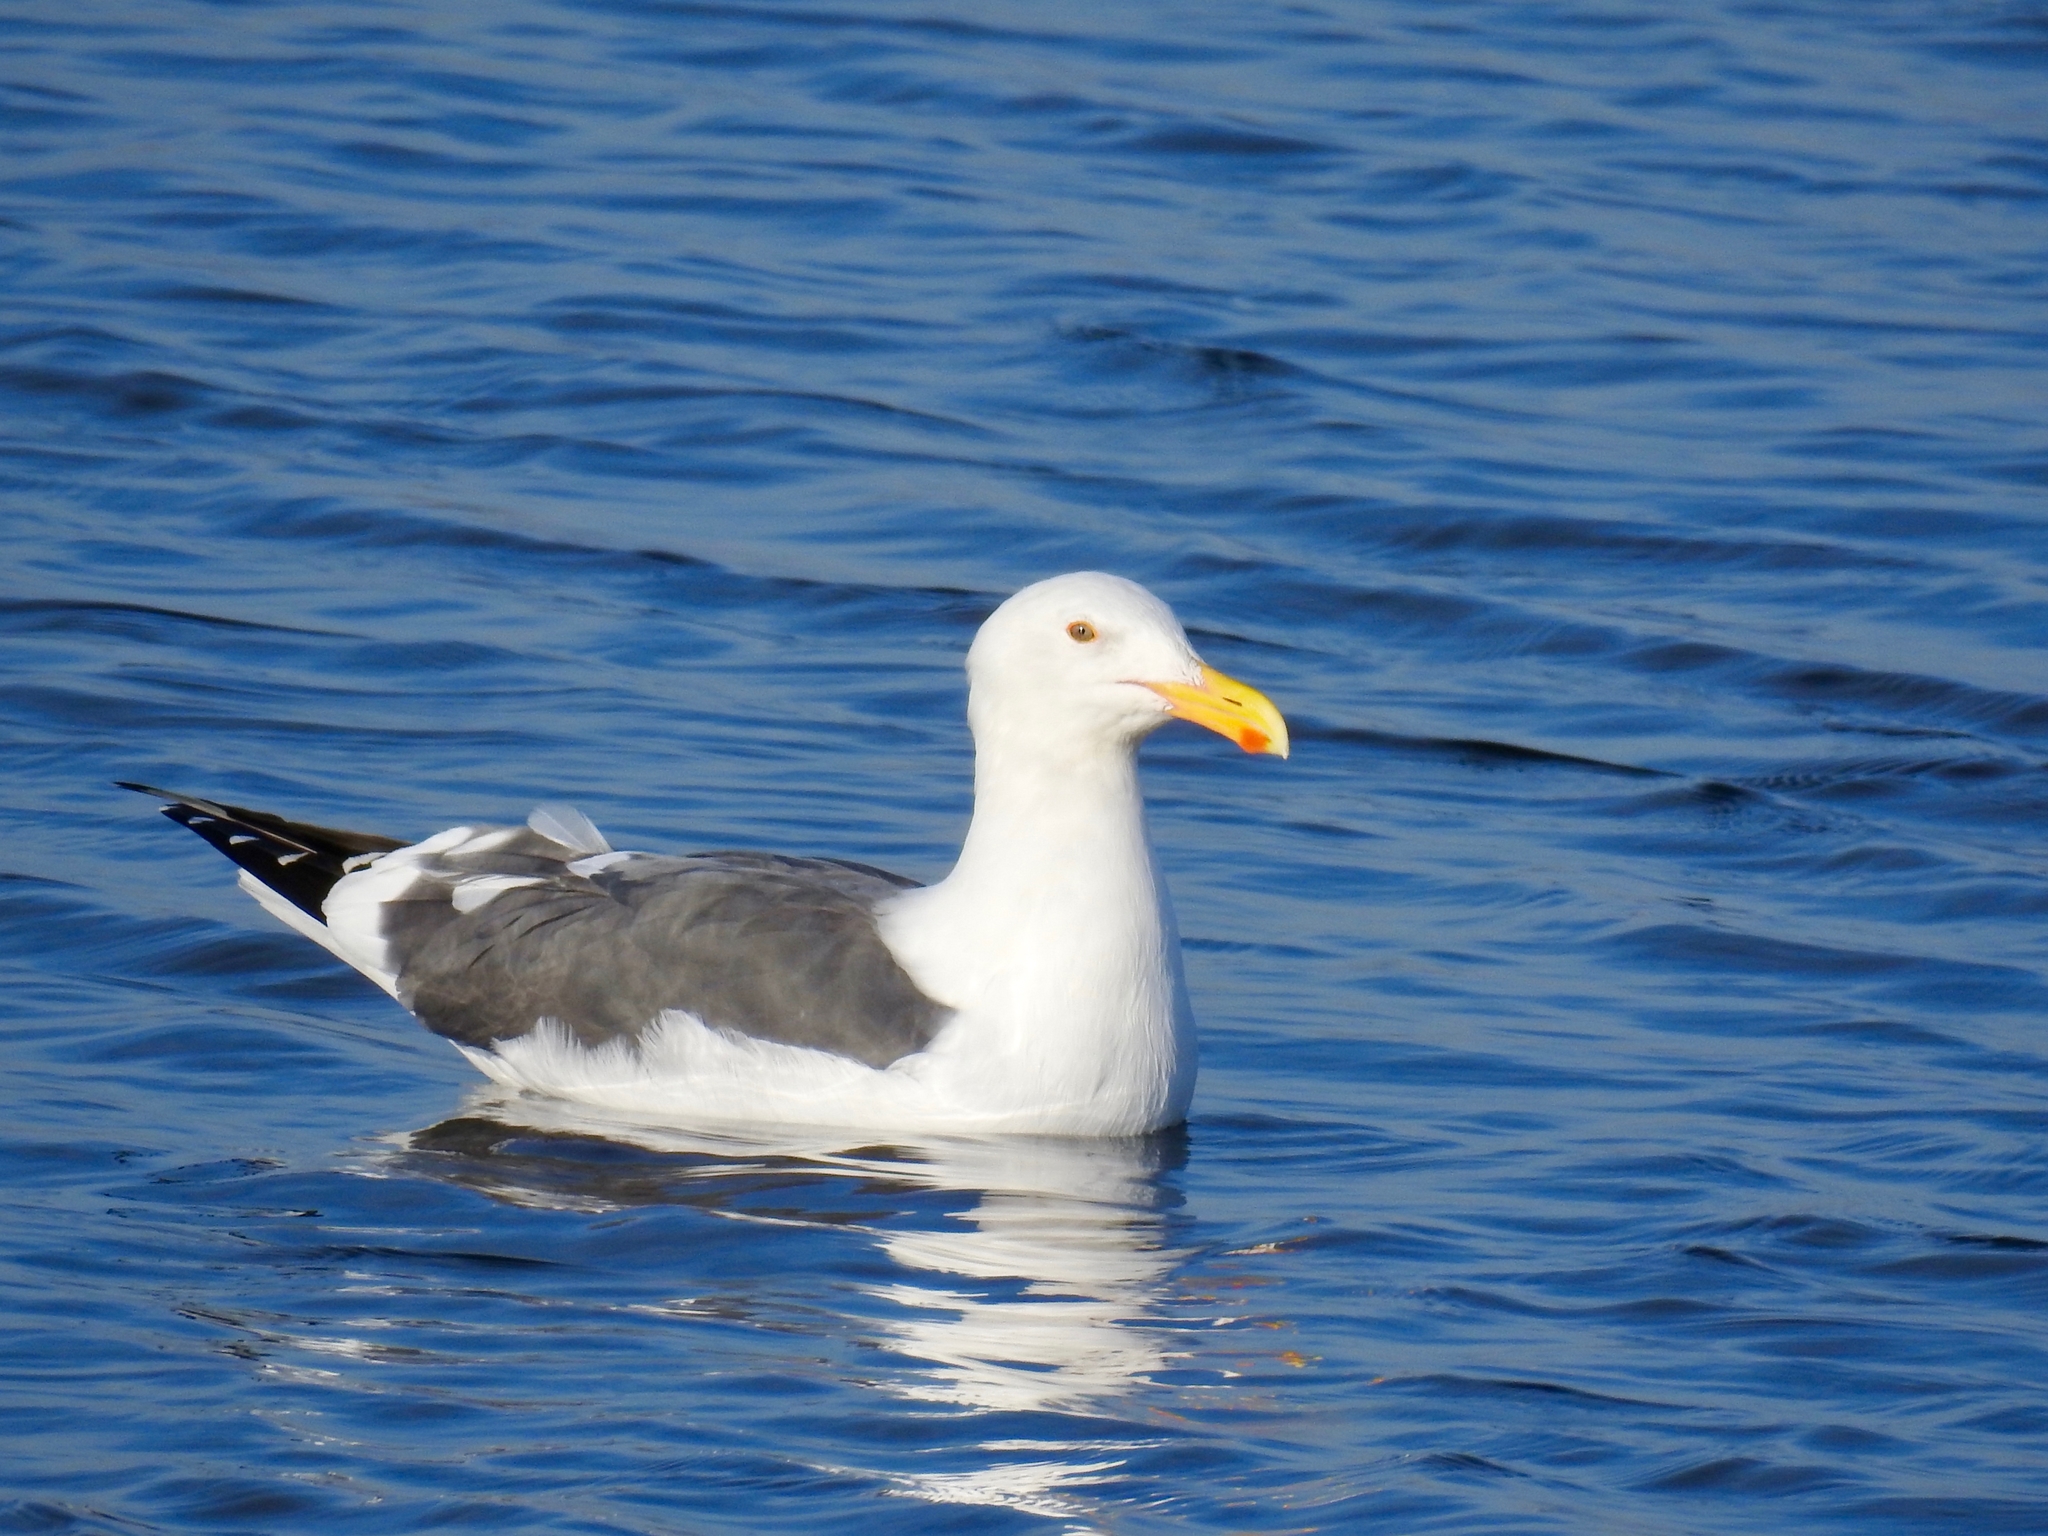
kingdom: Animalia
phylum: Chordata
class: Aves
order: Charadriiformes
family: Laridae
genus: Larus
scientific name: Larus occidentalis
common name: Western gull
